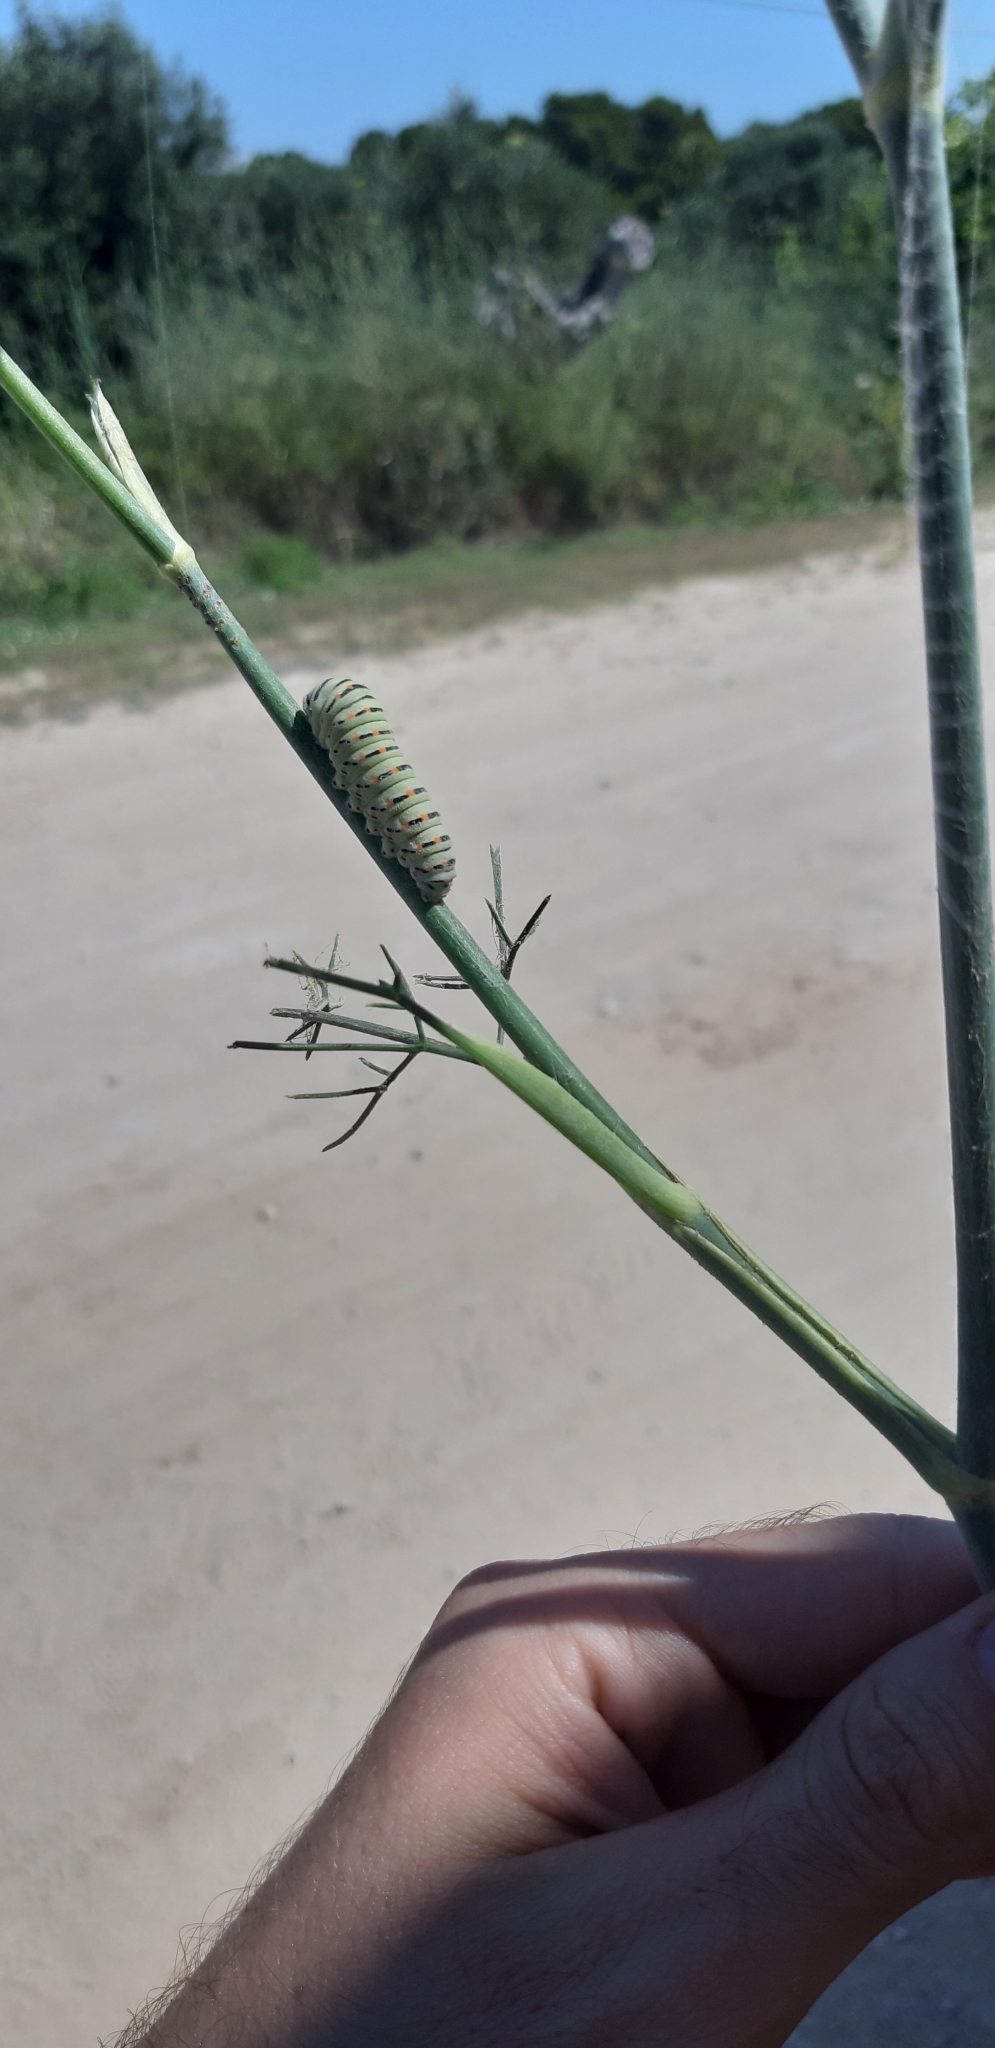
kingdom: Animalia
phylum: Arthropoda
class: Insecta
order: Lepidoptera
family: Papilionidae
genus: Papilio
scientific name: Papilio machaon
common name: Swallowtail
